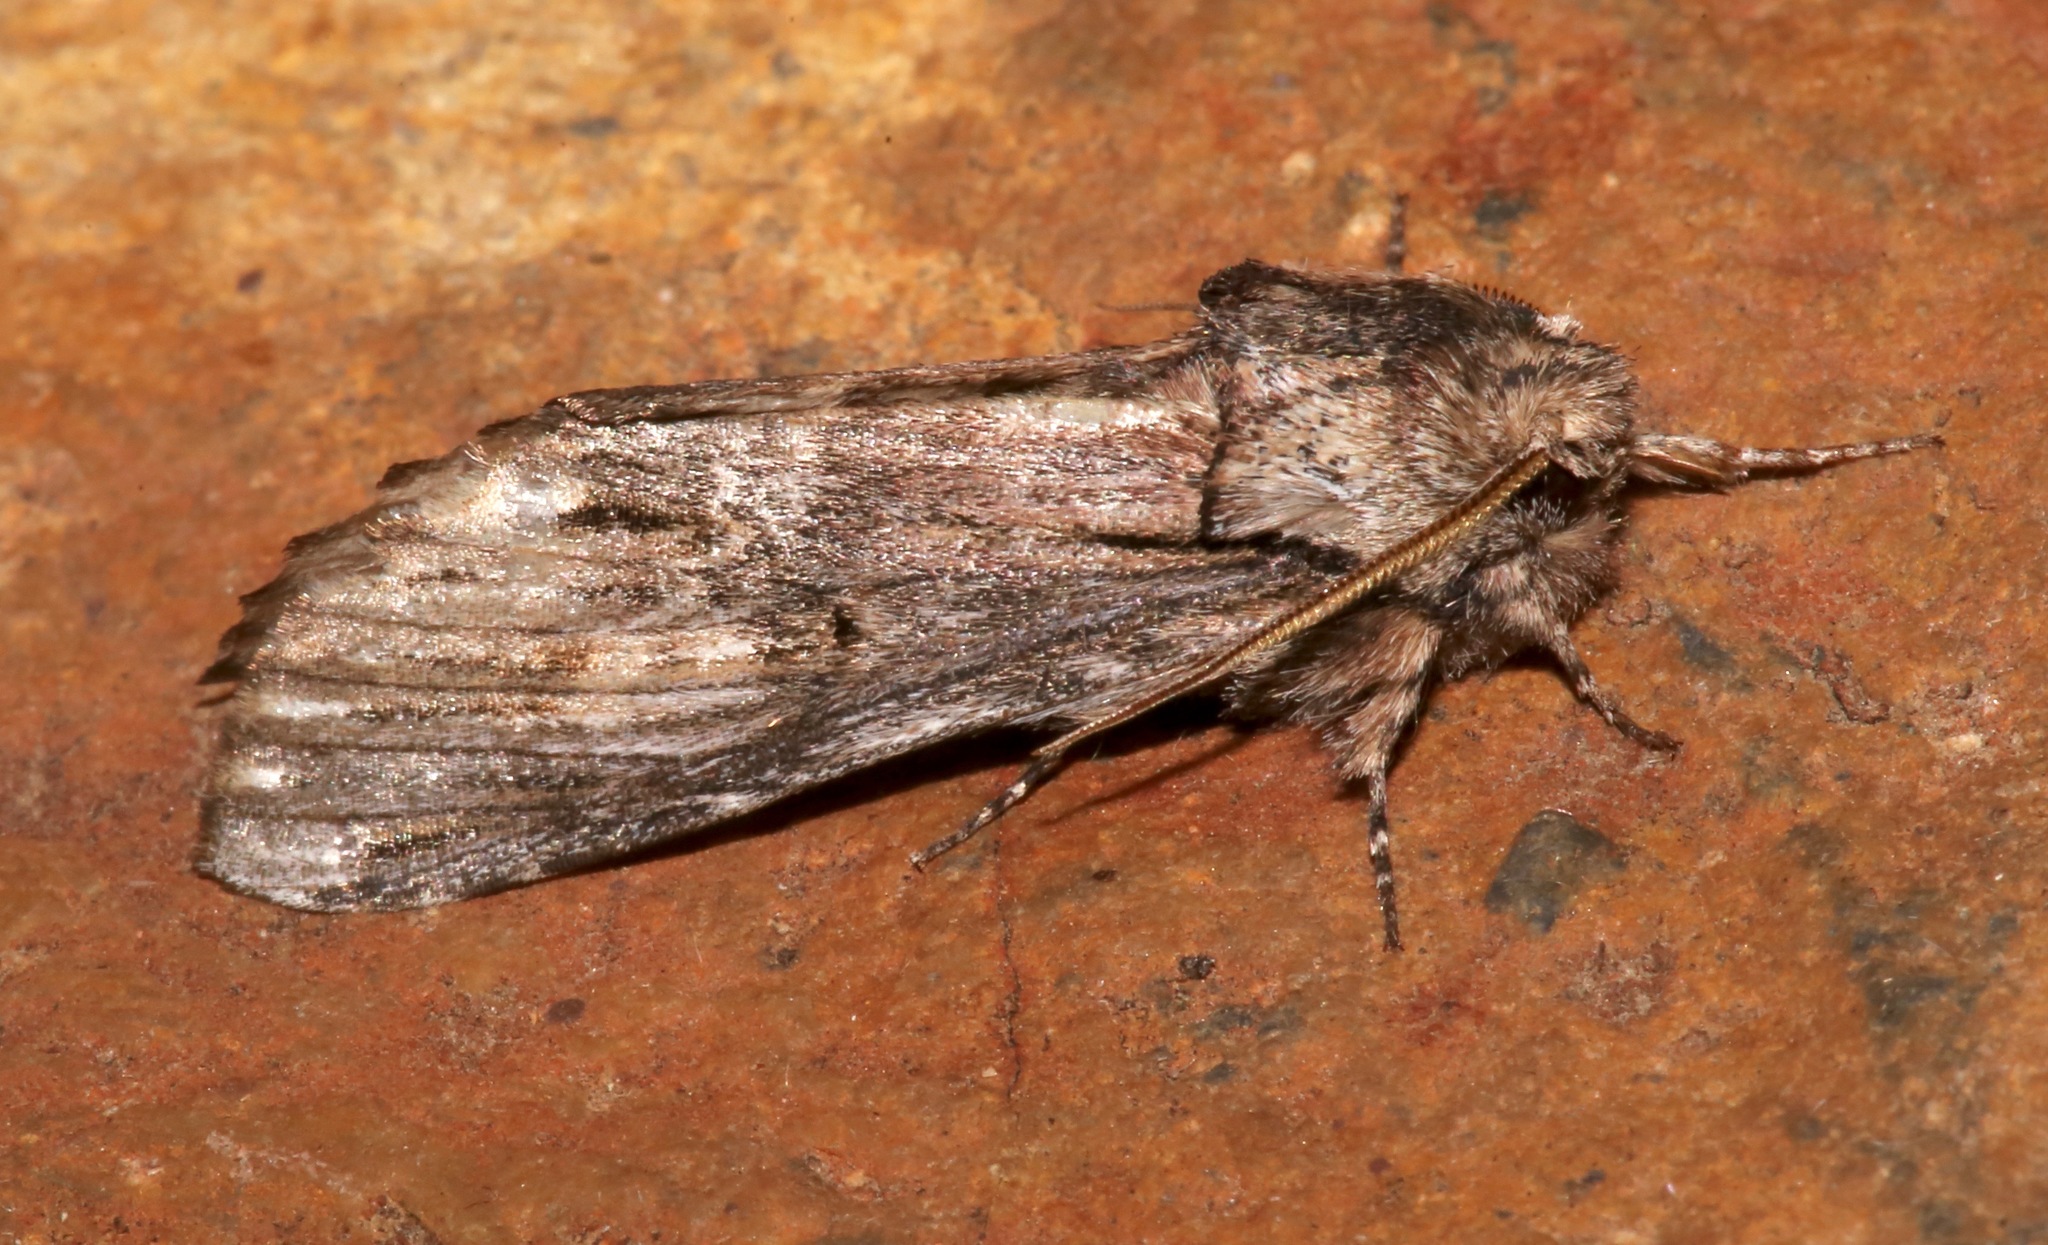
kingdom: Animalia
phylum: Arthropoda
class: Insecta
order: Lepidoptera
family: Notodontidae
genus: Oligocentria
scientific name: Oligocentria Ianassa paradisus
